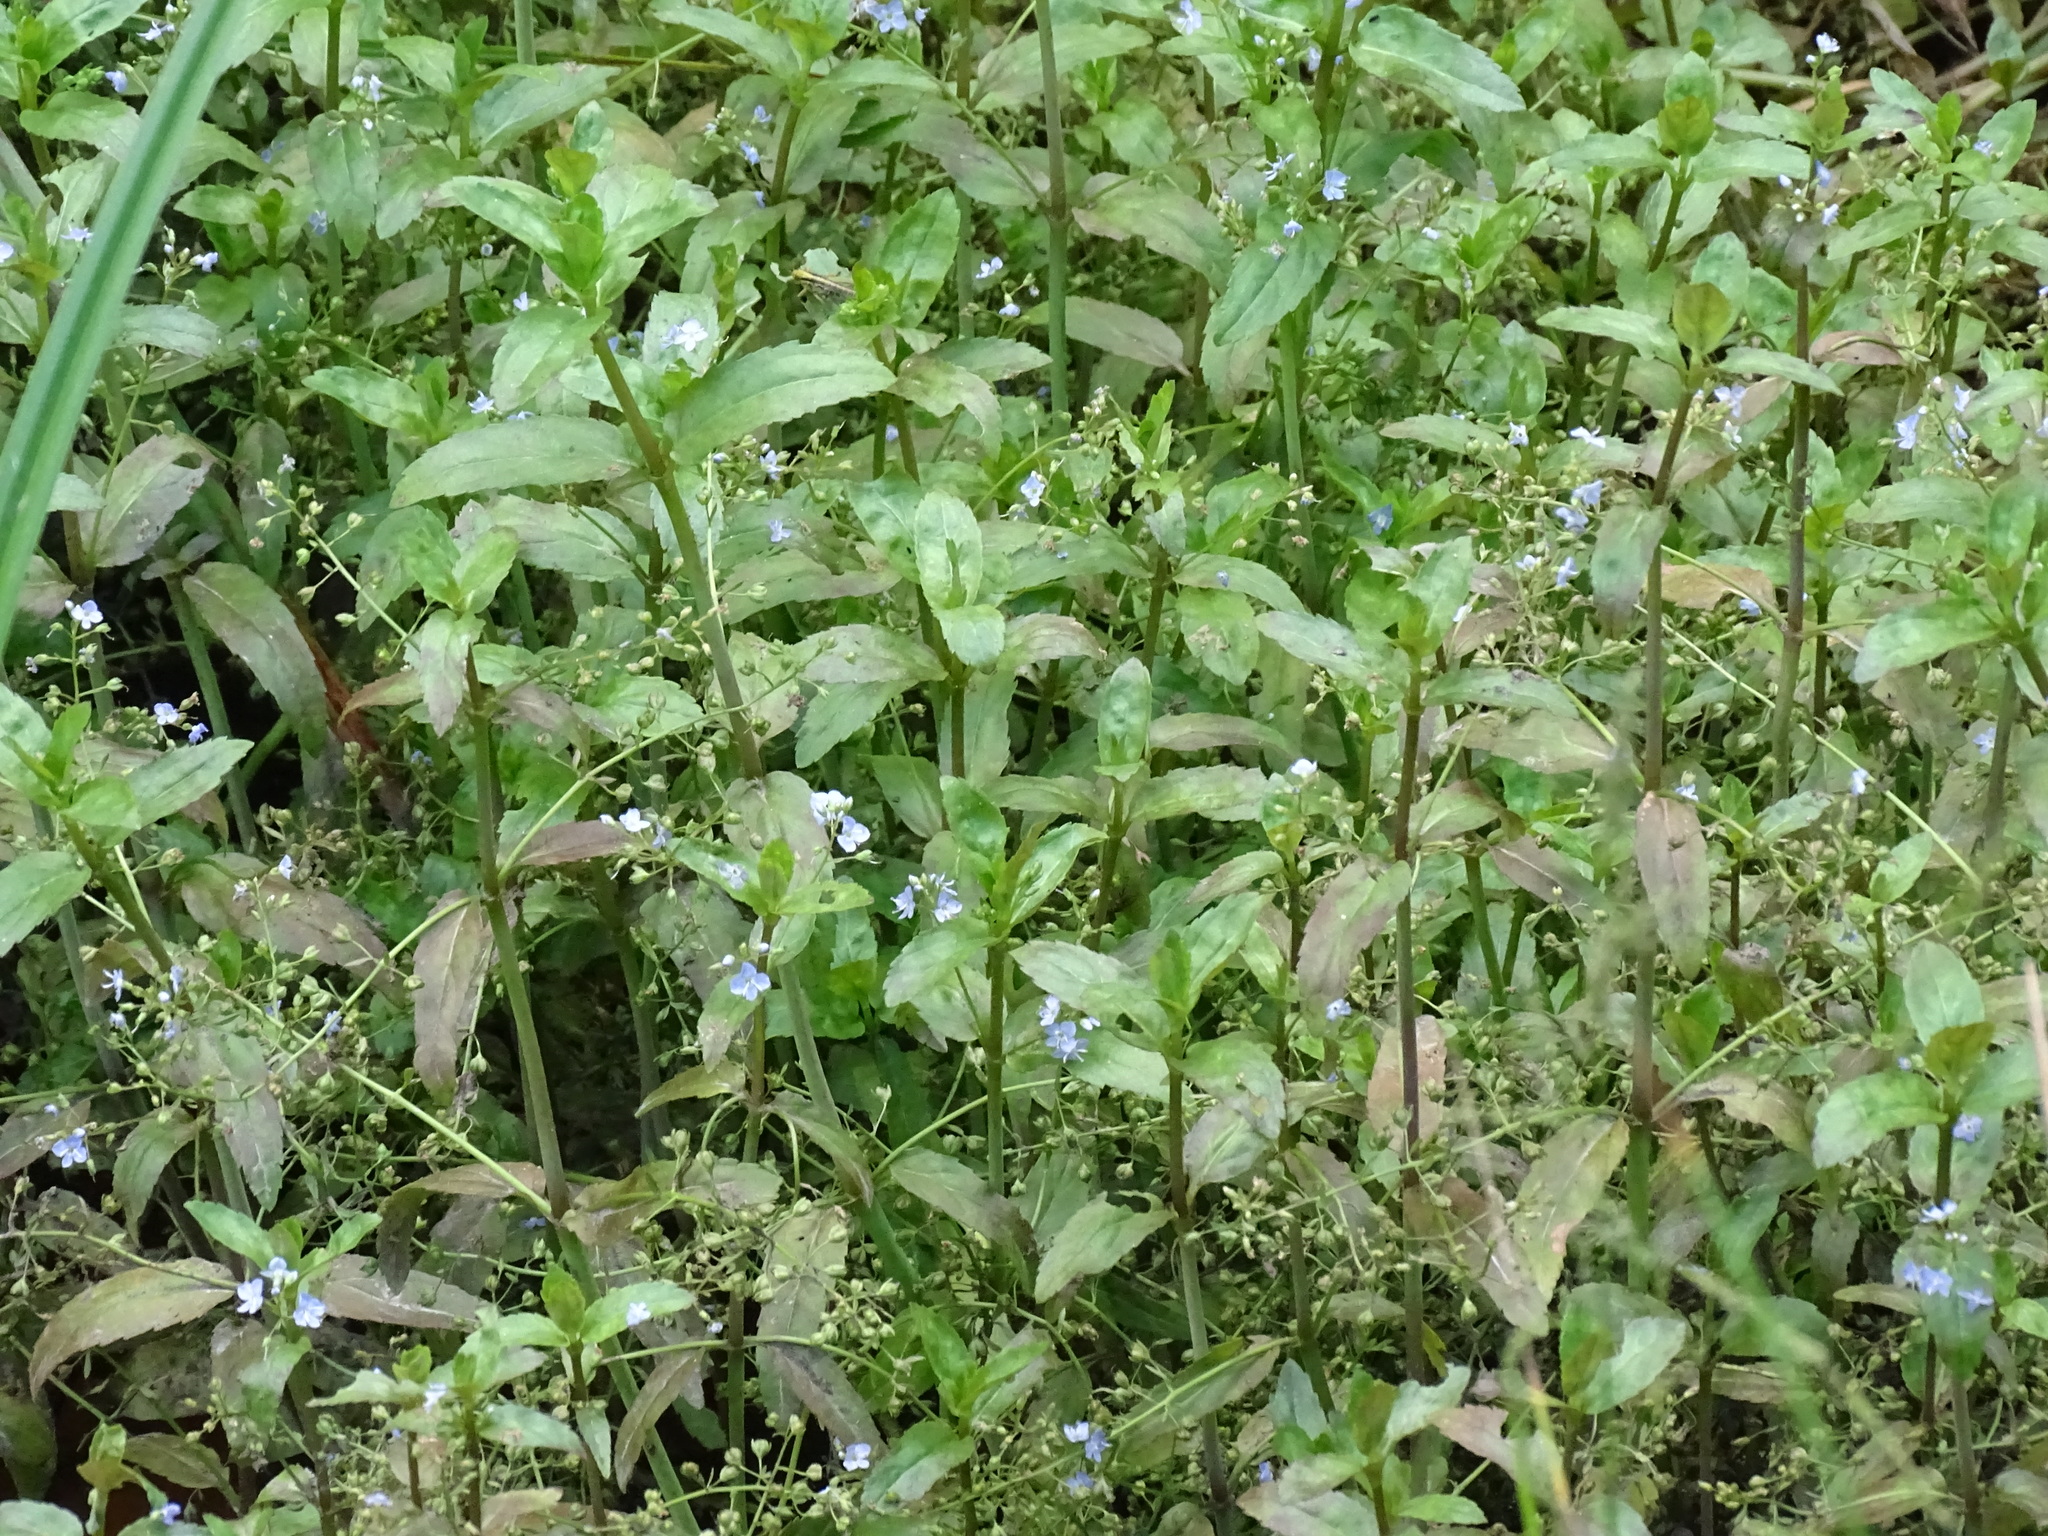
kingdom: Plantae
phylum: Tracheophyta
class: Magnoliopsida
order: Lamiales
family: Plantaginaceae
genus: Veronica
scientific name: Veronica americana
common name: American brooklime
